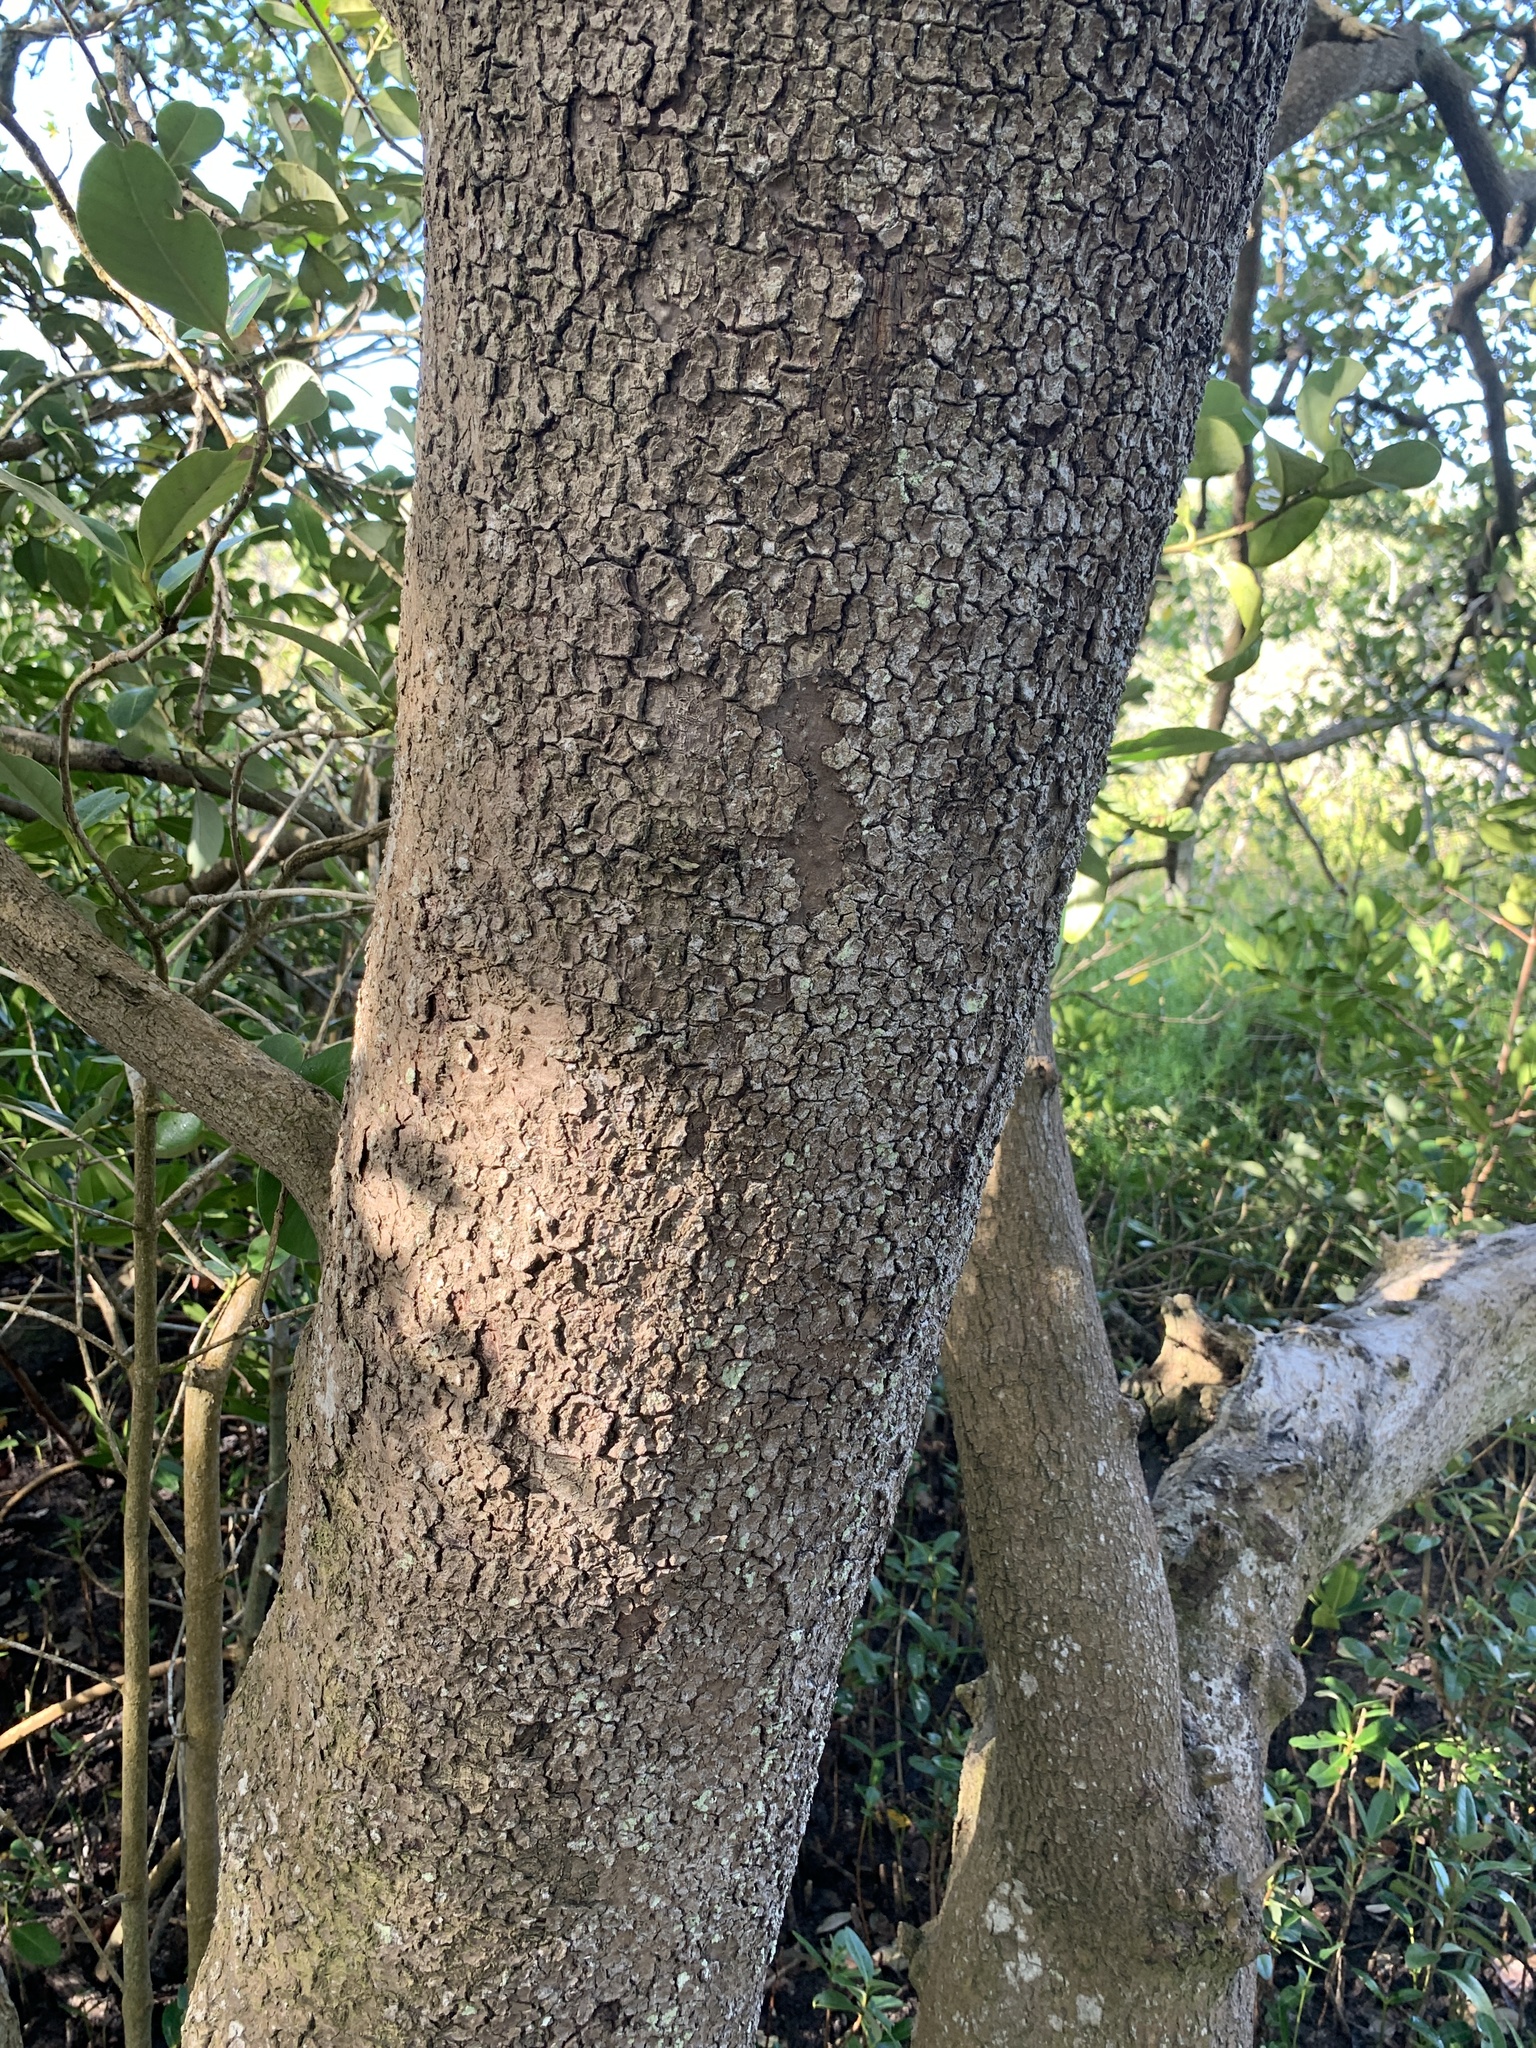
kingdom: Plantae
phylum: Tracheophyta
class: Magnoliopsida
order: Lamiales
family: Acanthaceae
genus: Avicennia
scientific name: Avicennia germinans
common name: Black mangrove
